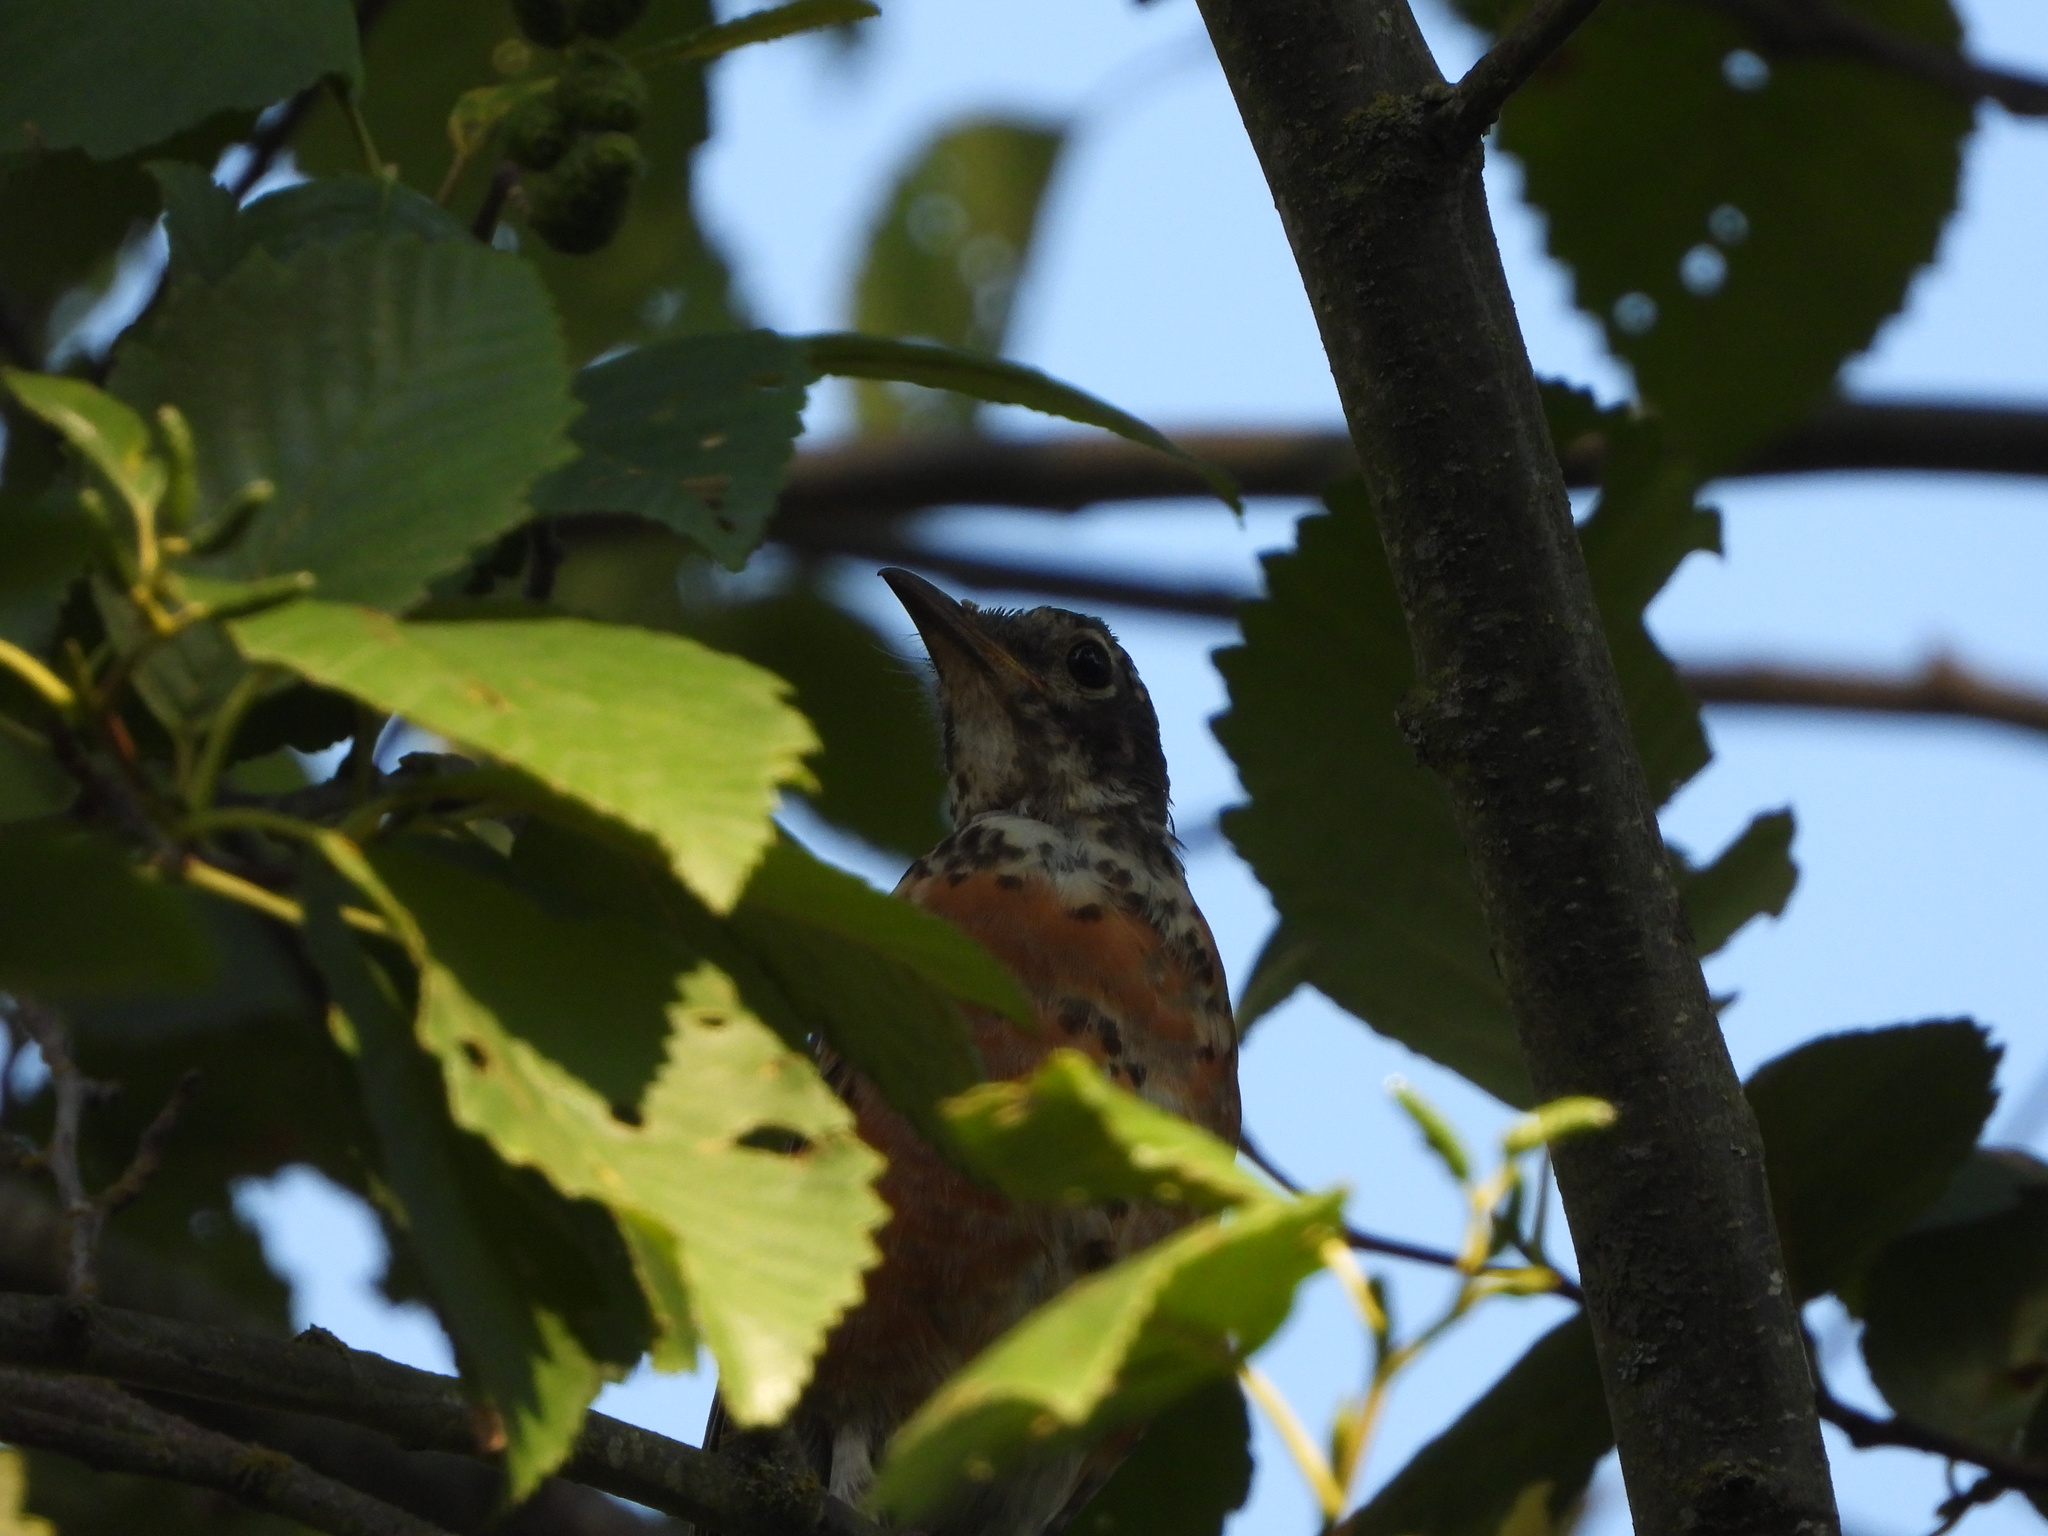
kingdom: Animalia
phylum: Chordata
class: Aves
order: Passeriformes
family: Turdidae
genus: Turdus
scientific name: Turdus migratorius
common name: American robin
